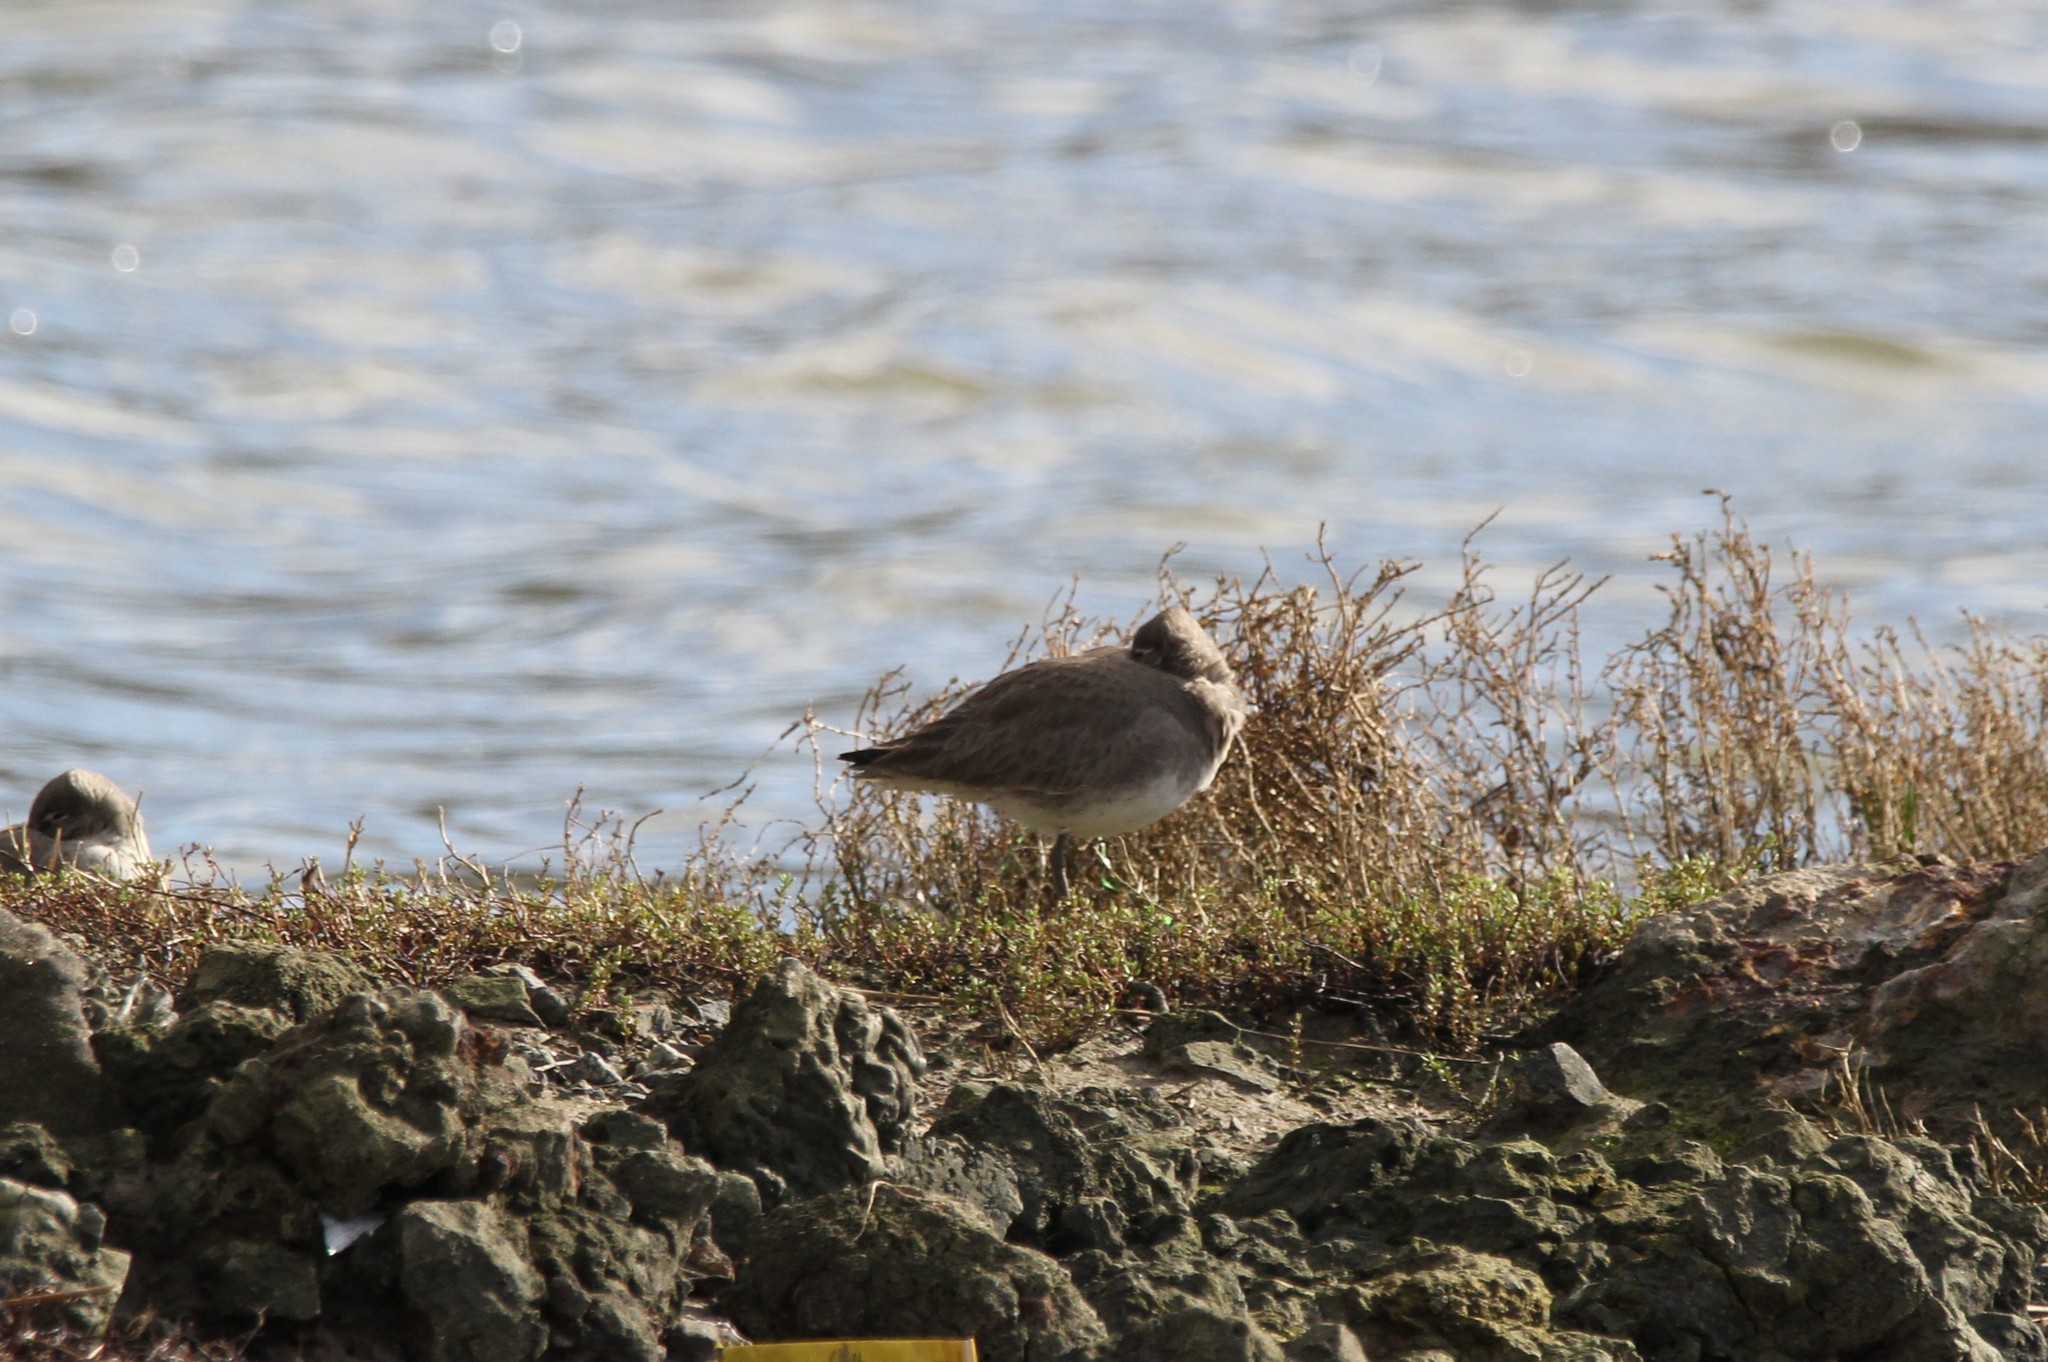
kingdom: Animalia
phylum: Chordata
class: Aves
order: Charadriiformes
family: Scolopacidae
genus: Tringa
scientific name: Tringa semipalmata
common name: Willet
